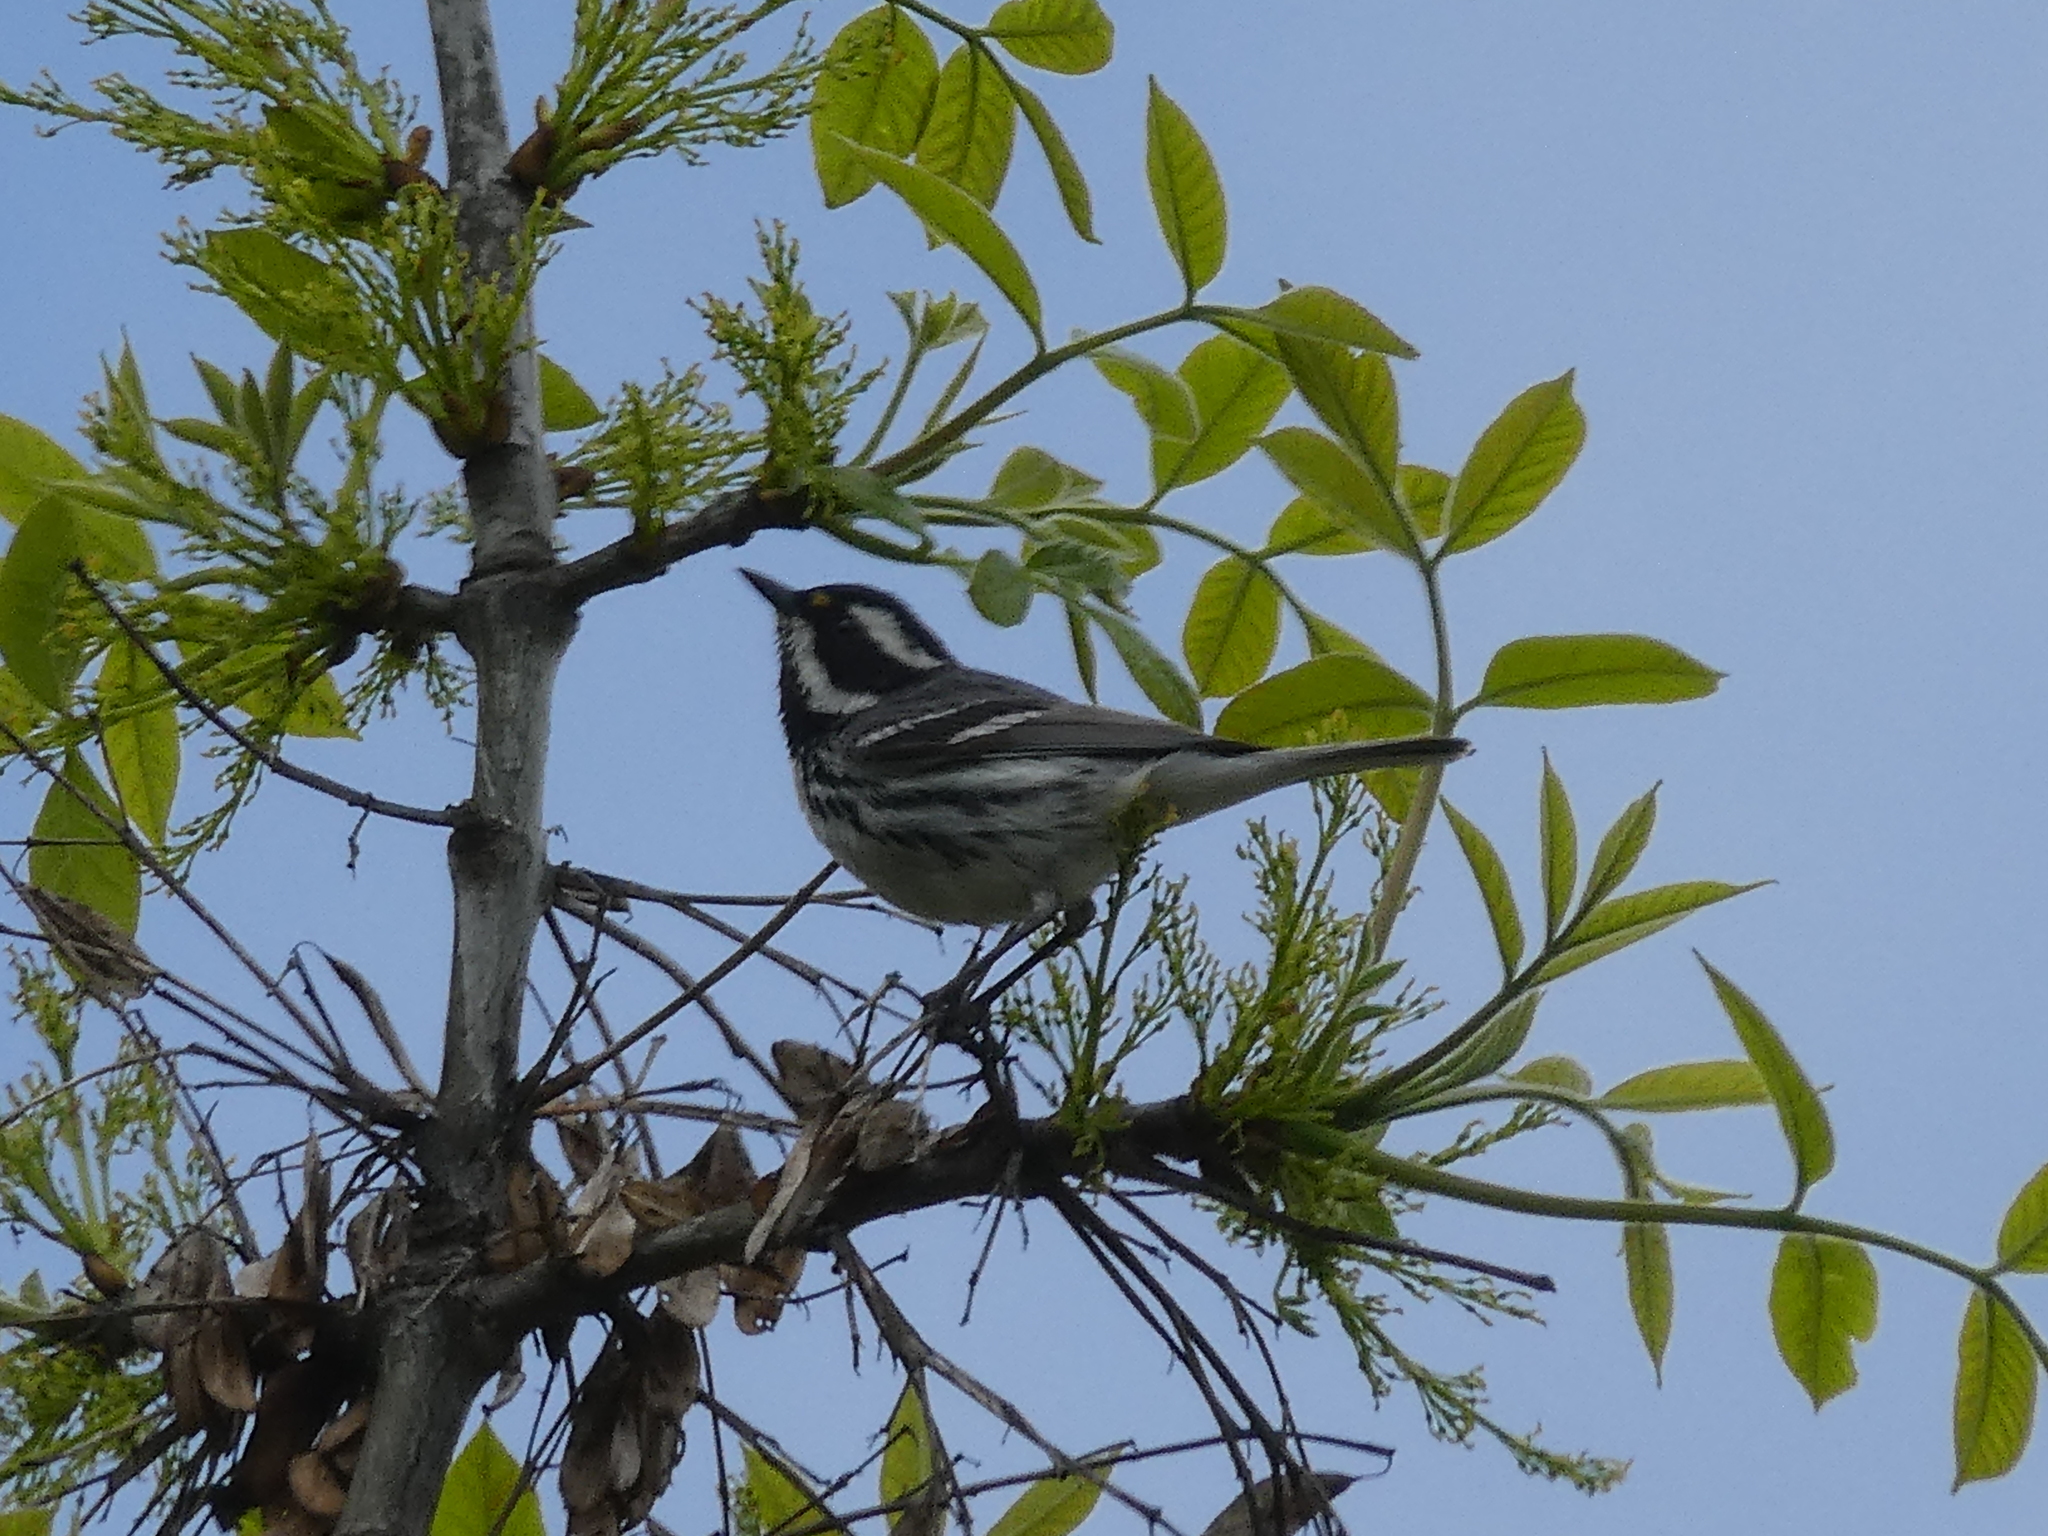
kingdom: Animalia
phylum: Chordata
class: Aves
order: Passeriformes
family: Parulidae
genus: Setophaga
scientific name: Setophaga nigrescens
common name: Black-throated gray warbler
